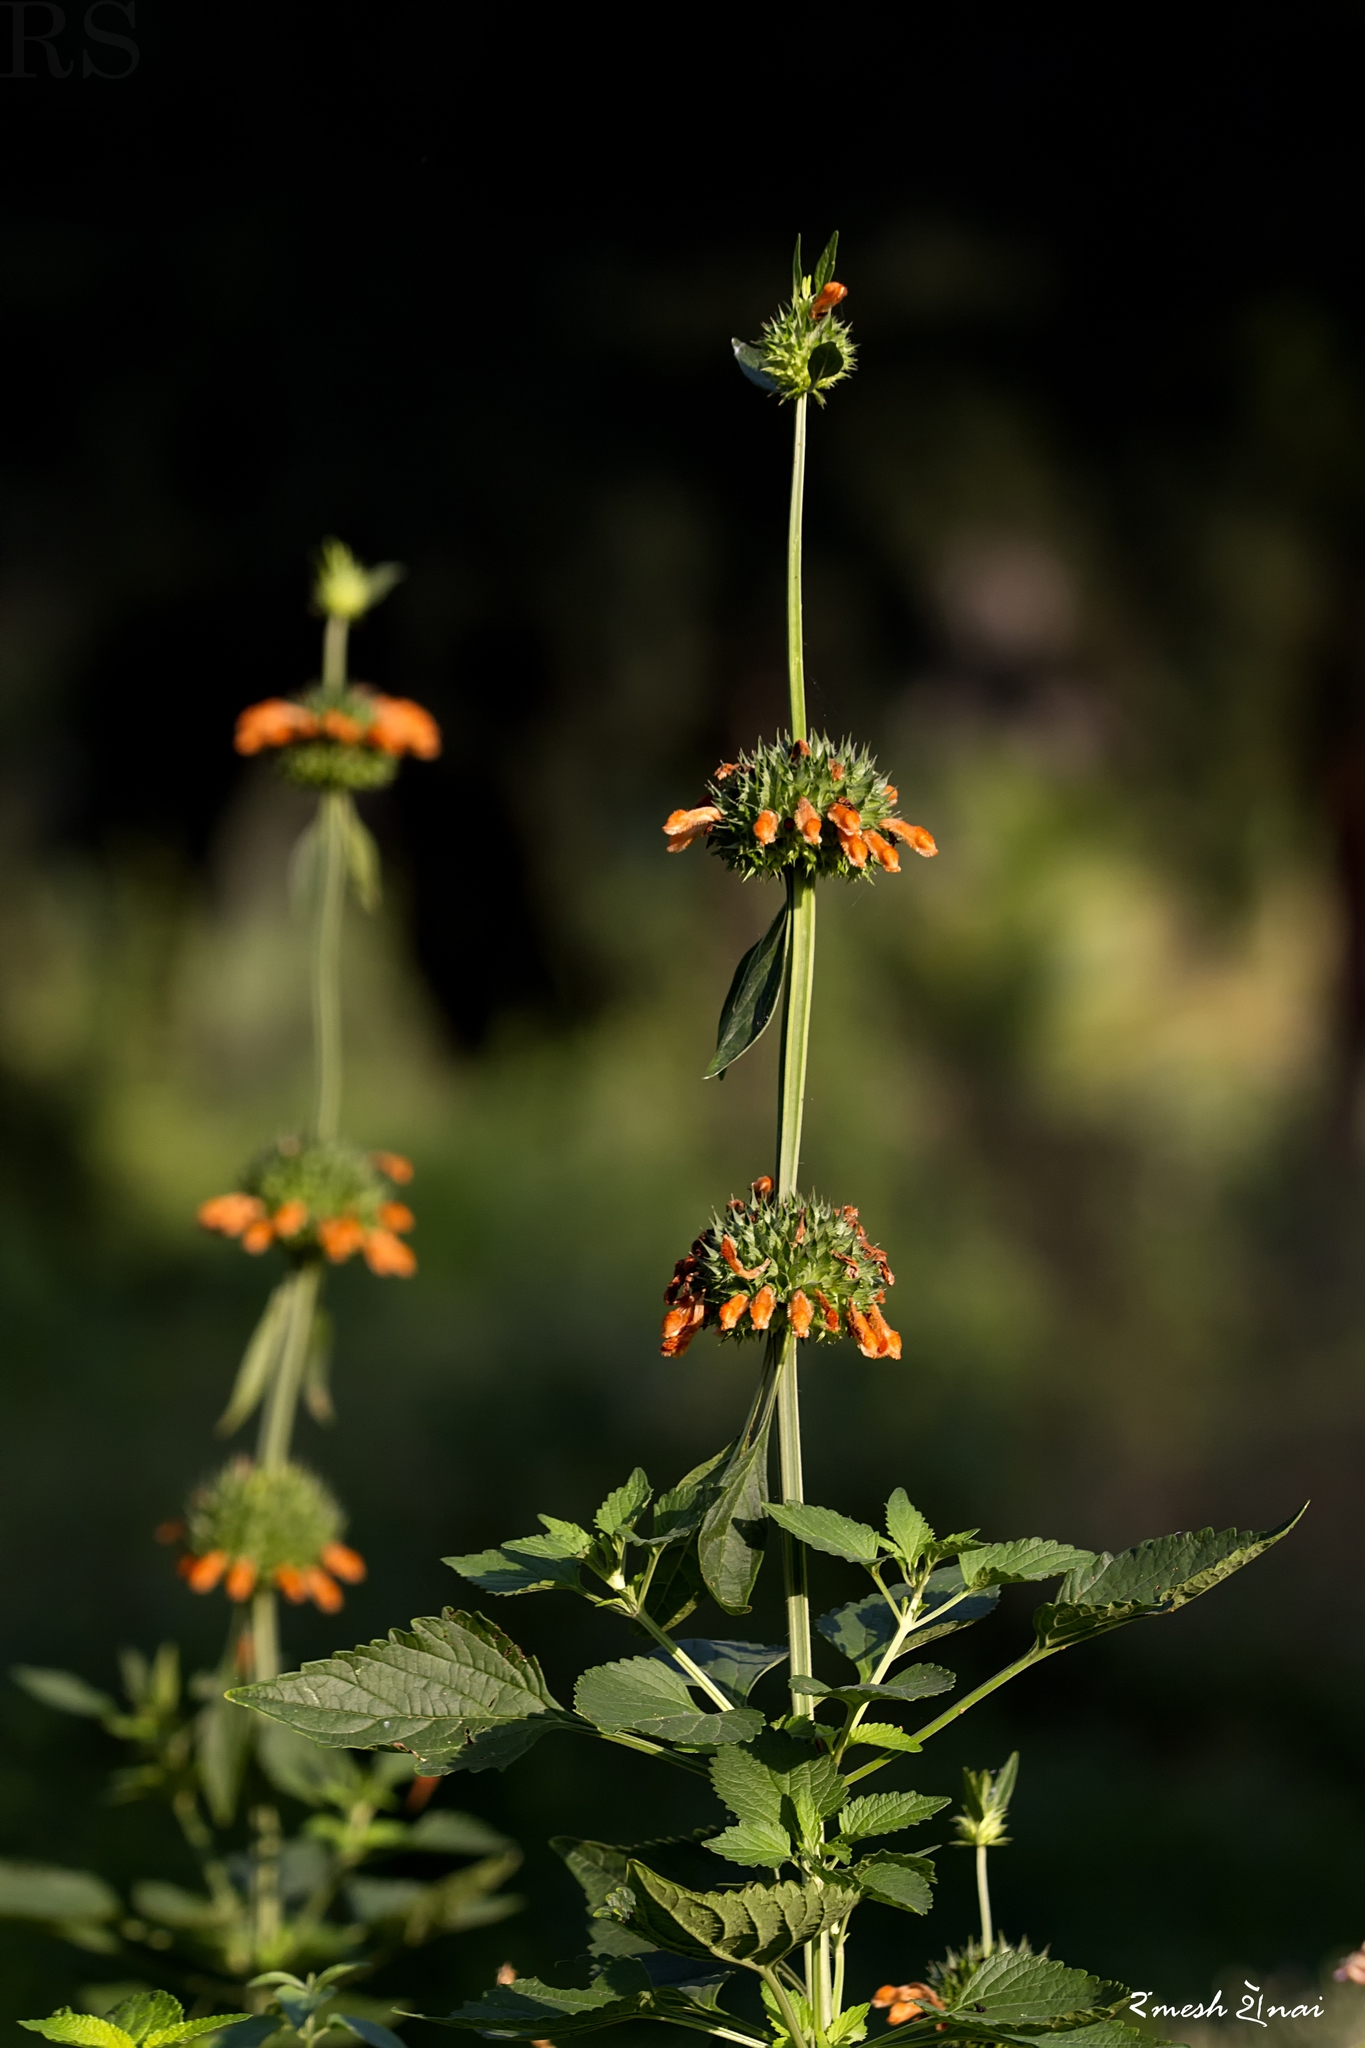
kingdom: Plantae
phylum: Tracheophyta
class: Magnoliopsida
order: Lamiales
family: Lamiaceae
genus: Leonotis
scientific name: Leonotis nepetifolia
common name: Christmas candlestick
